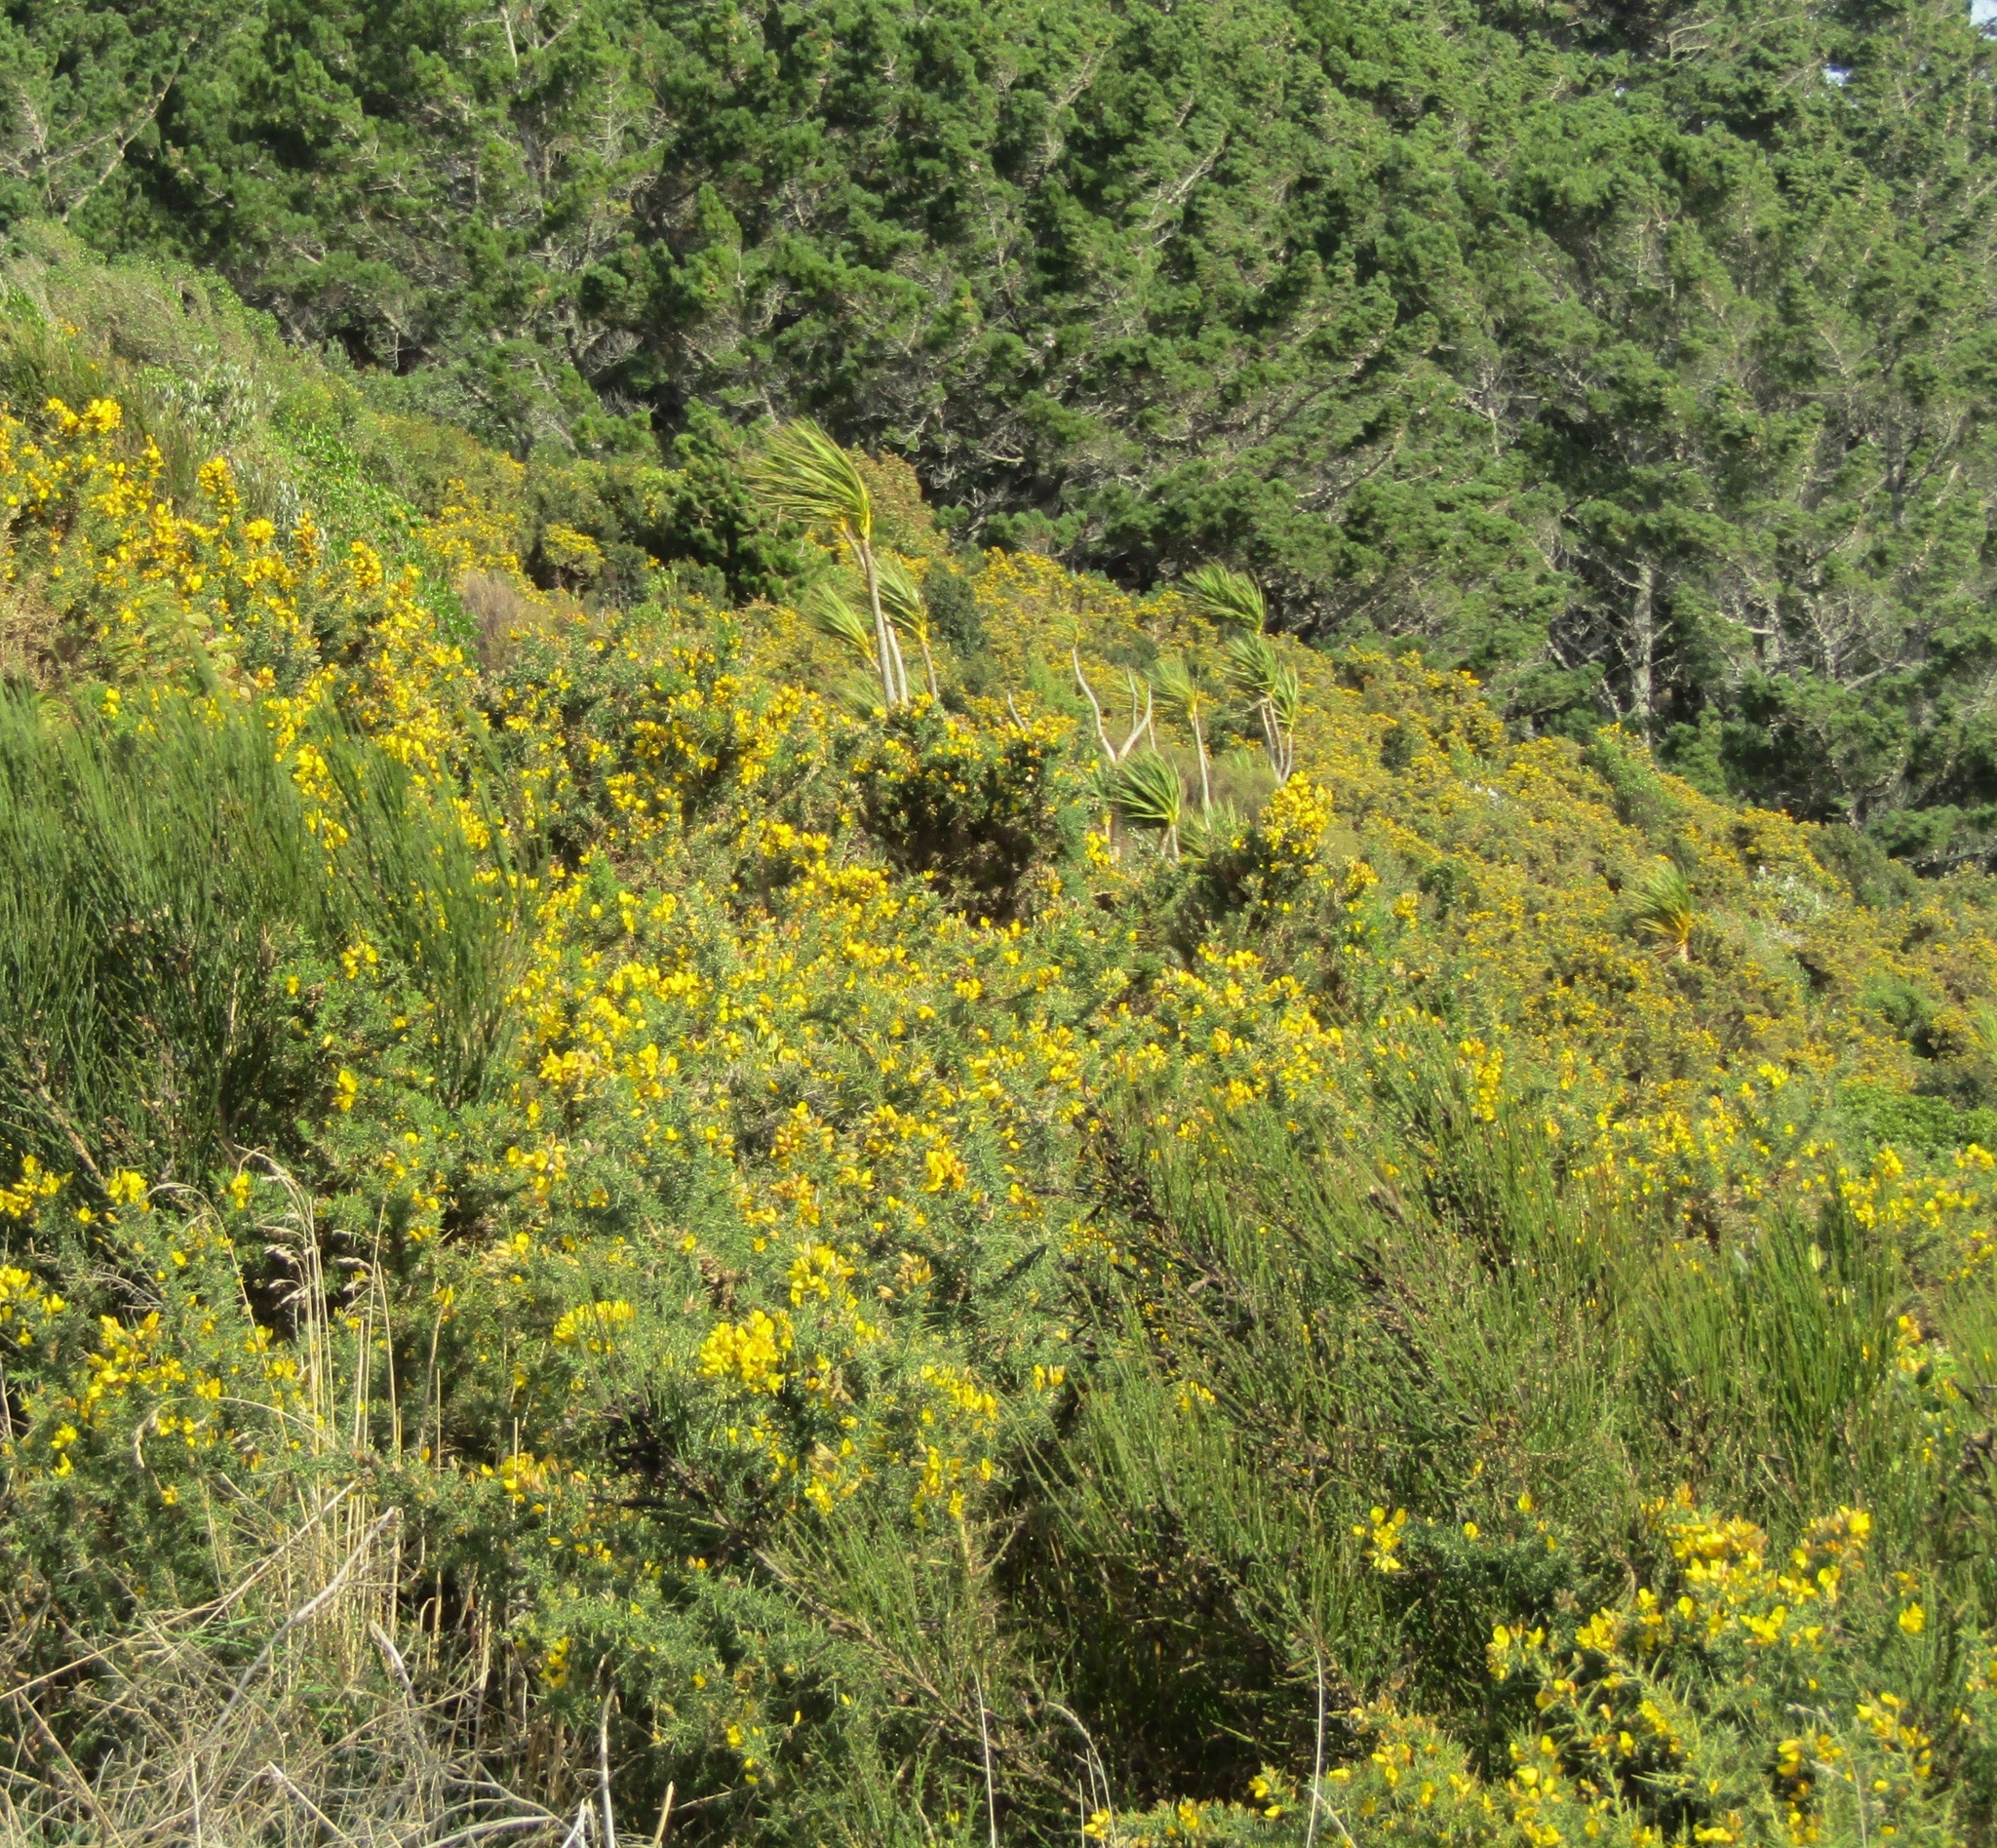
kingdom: Plantae
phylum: Tracheophyta
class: Magnoliopsida
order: Fabales
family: Fabaceae
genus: Ulex
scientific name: Ulex europaeus
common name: Common gorse
